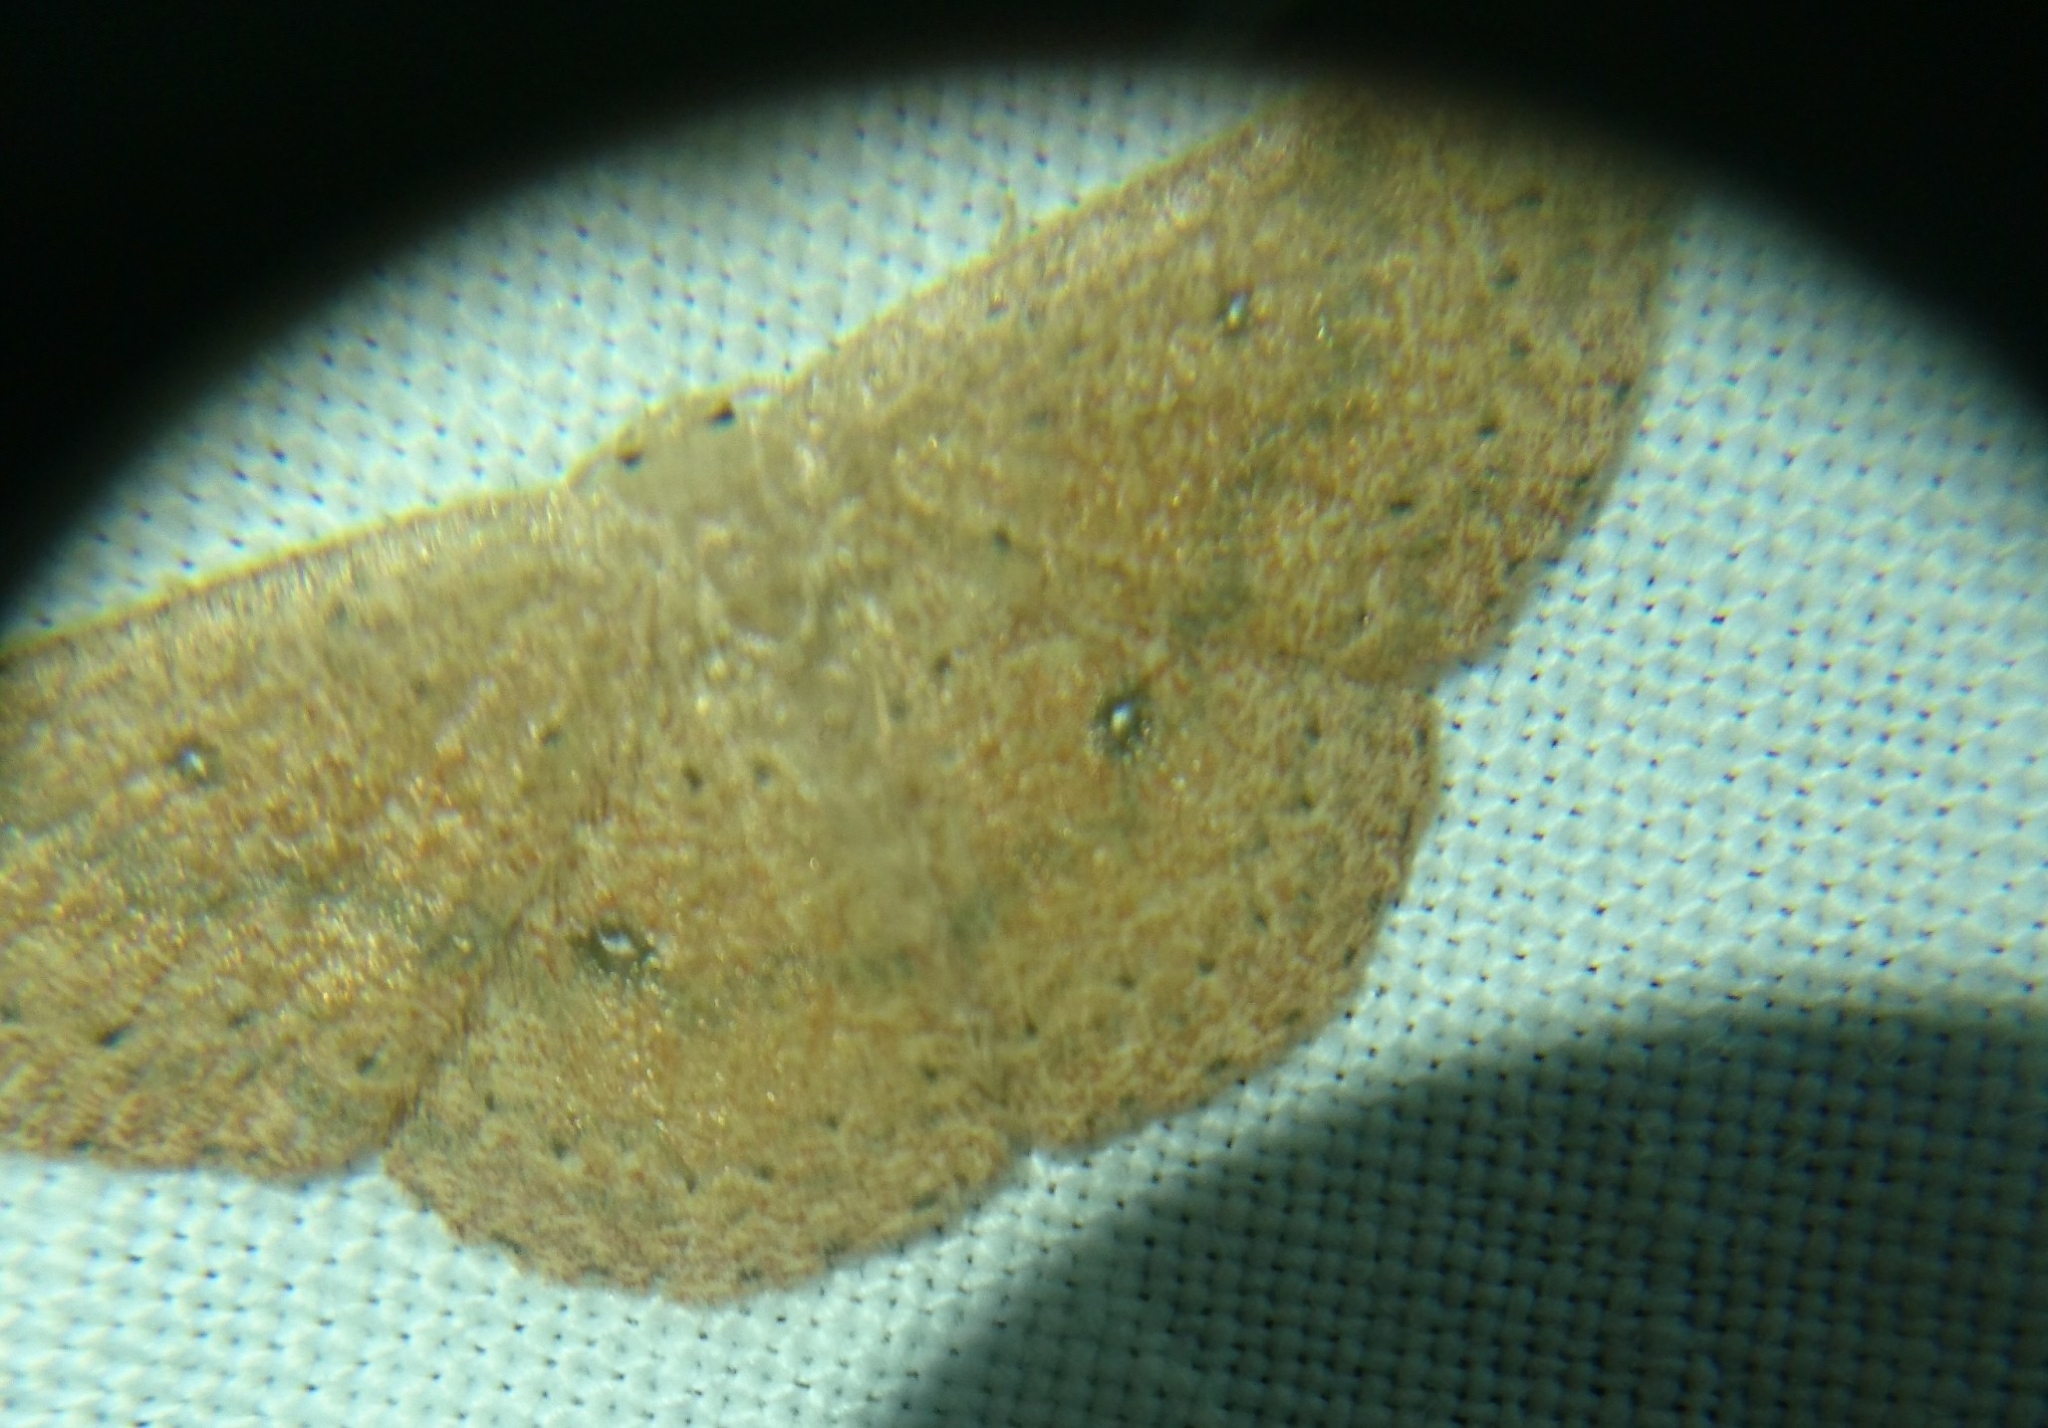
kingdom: Animalia
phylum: Arthropoda
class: Insecta
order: Lepidoptera
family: Geometridae
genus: Cyclophora
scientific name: Cyclophora packardi
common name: Packard's wave
